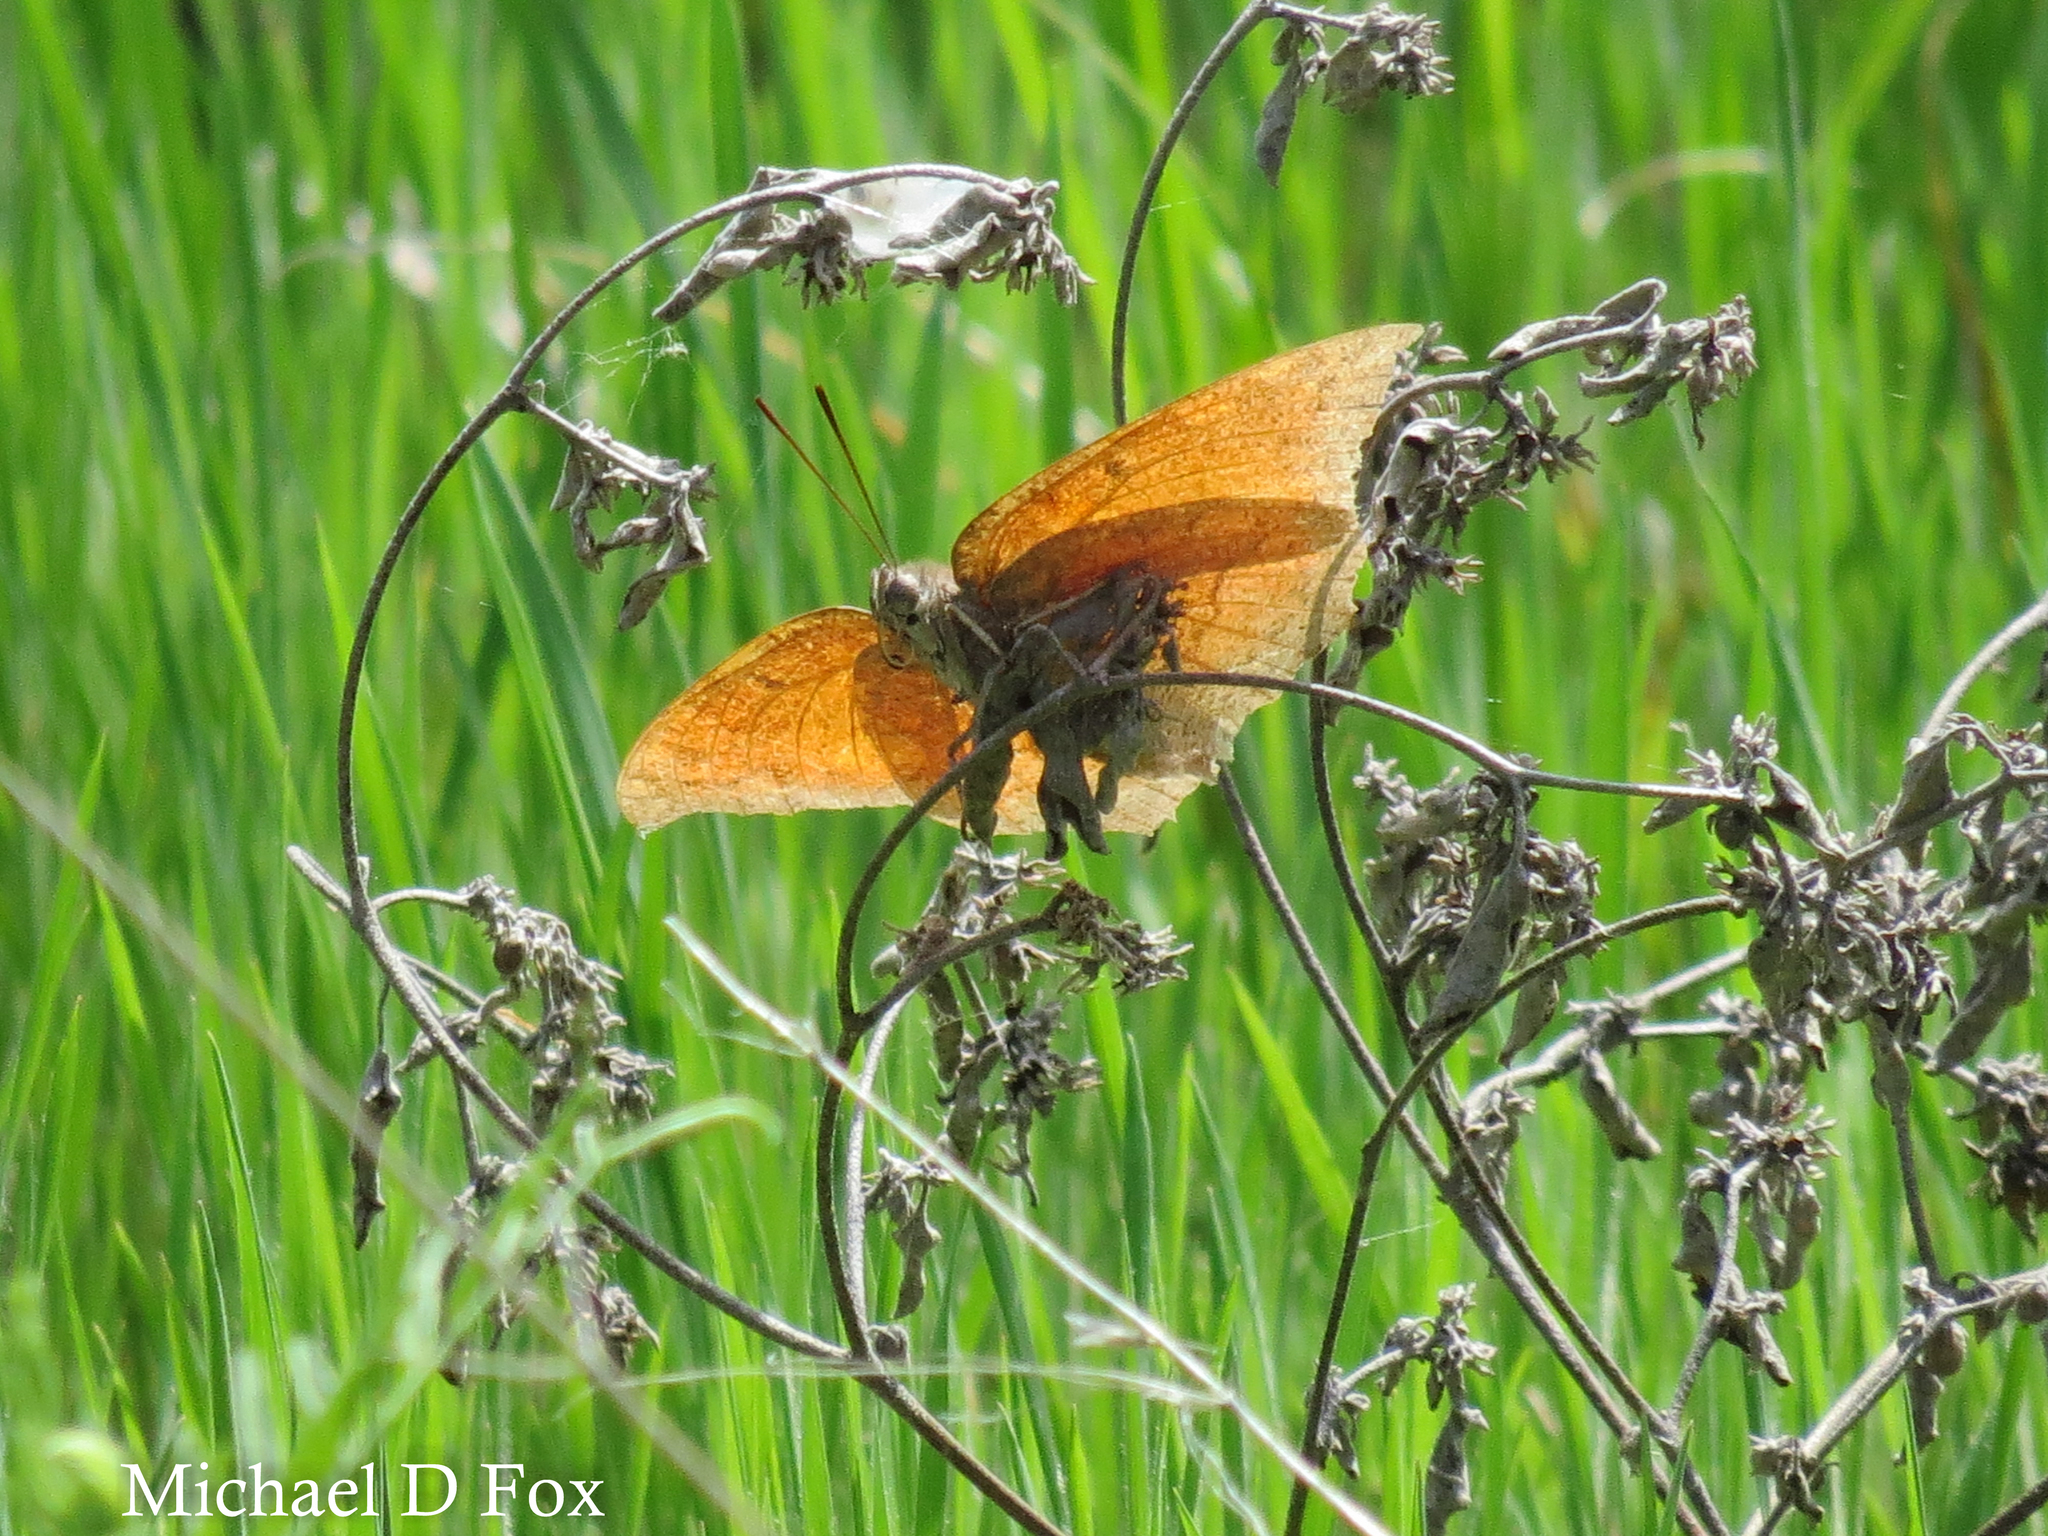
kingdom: Animalia
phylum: Arthropoda
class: Insecta
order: Lepidoptera
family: Nymphalidae
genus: Anaea
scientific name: Anaea andria
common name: Goatweed leafwing
